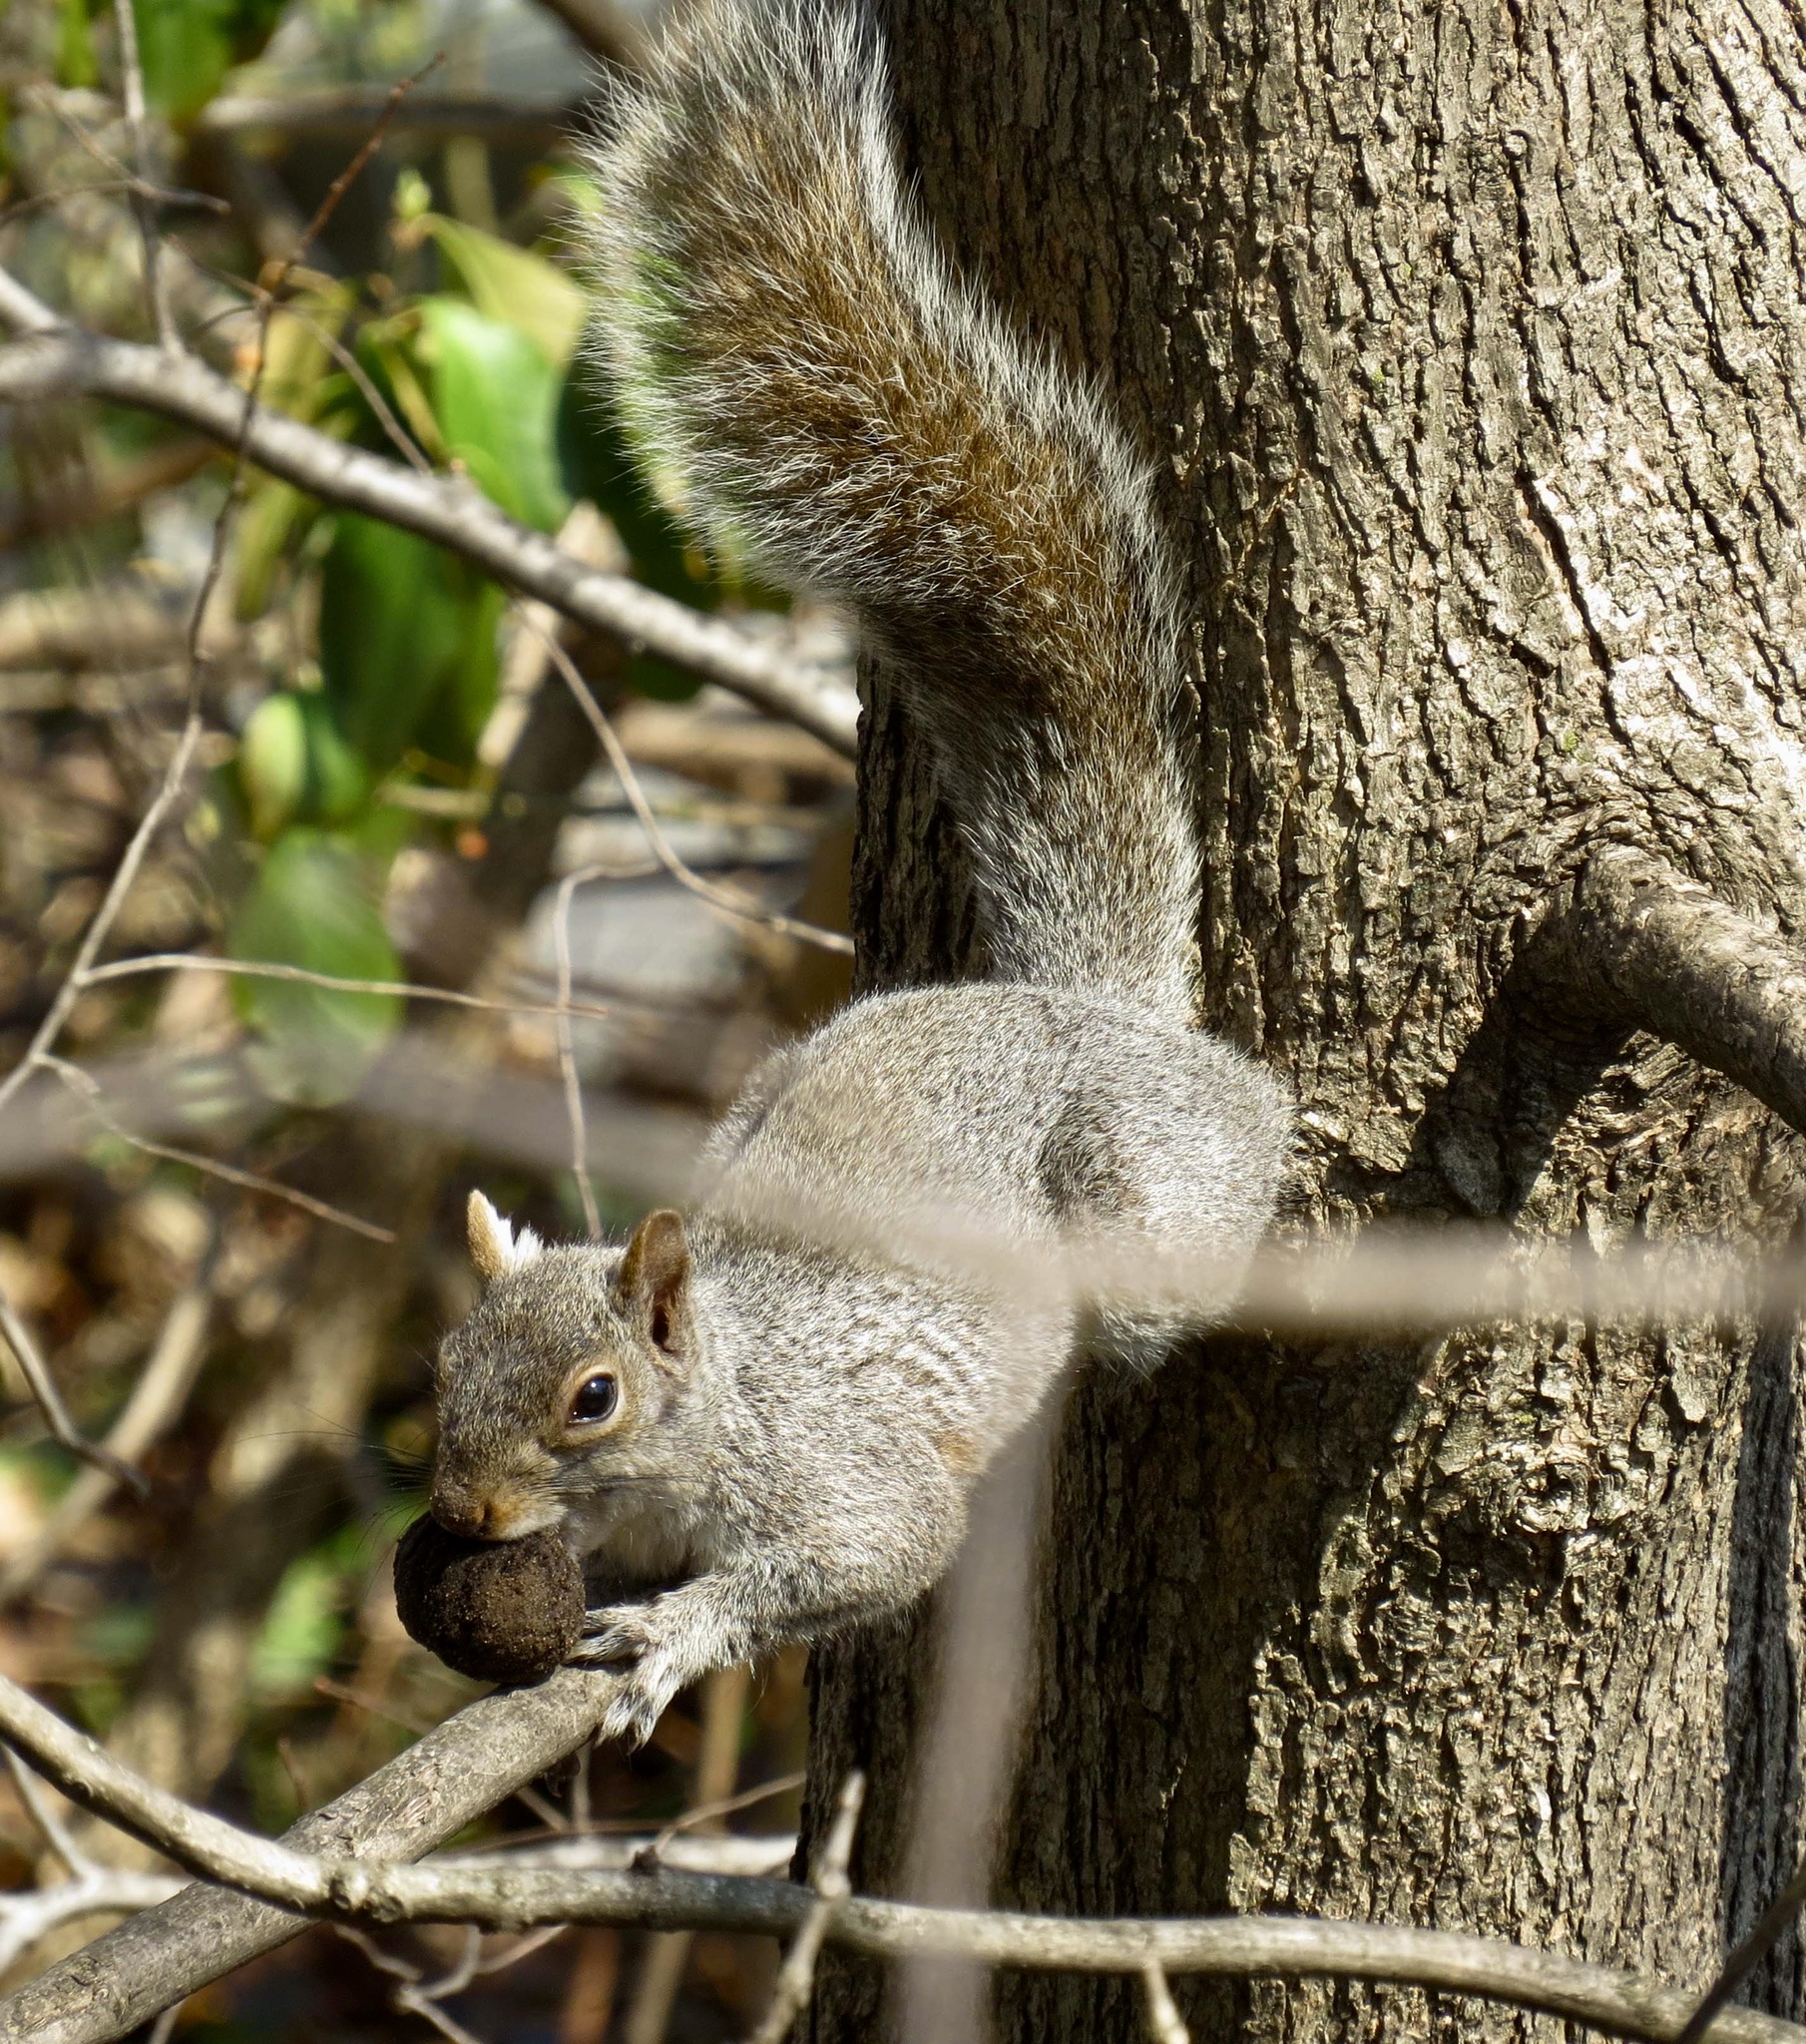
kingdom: Animalia
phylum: Chordata
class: Mammalia
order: Rodentia
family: Sciuridae
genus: Sciurus
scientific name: Sciurus carolinensis
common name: Eastern gray squirrel
